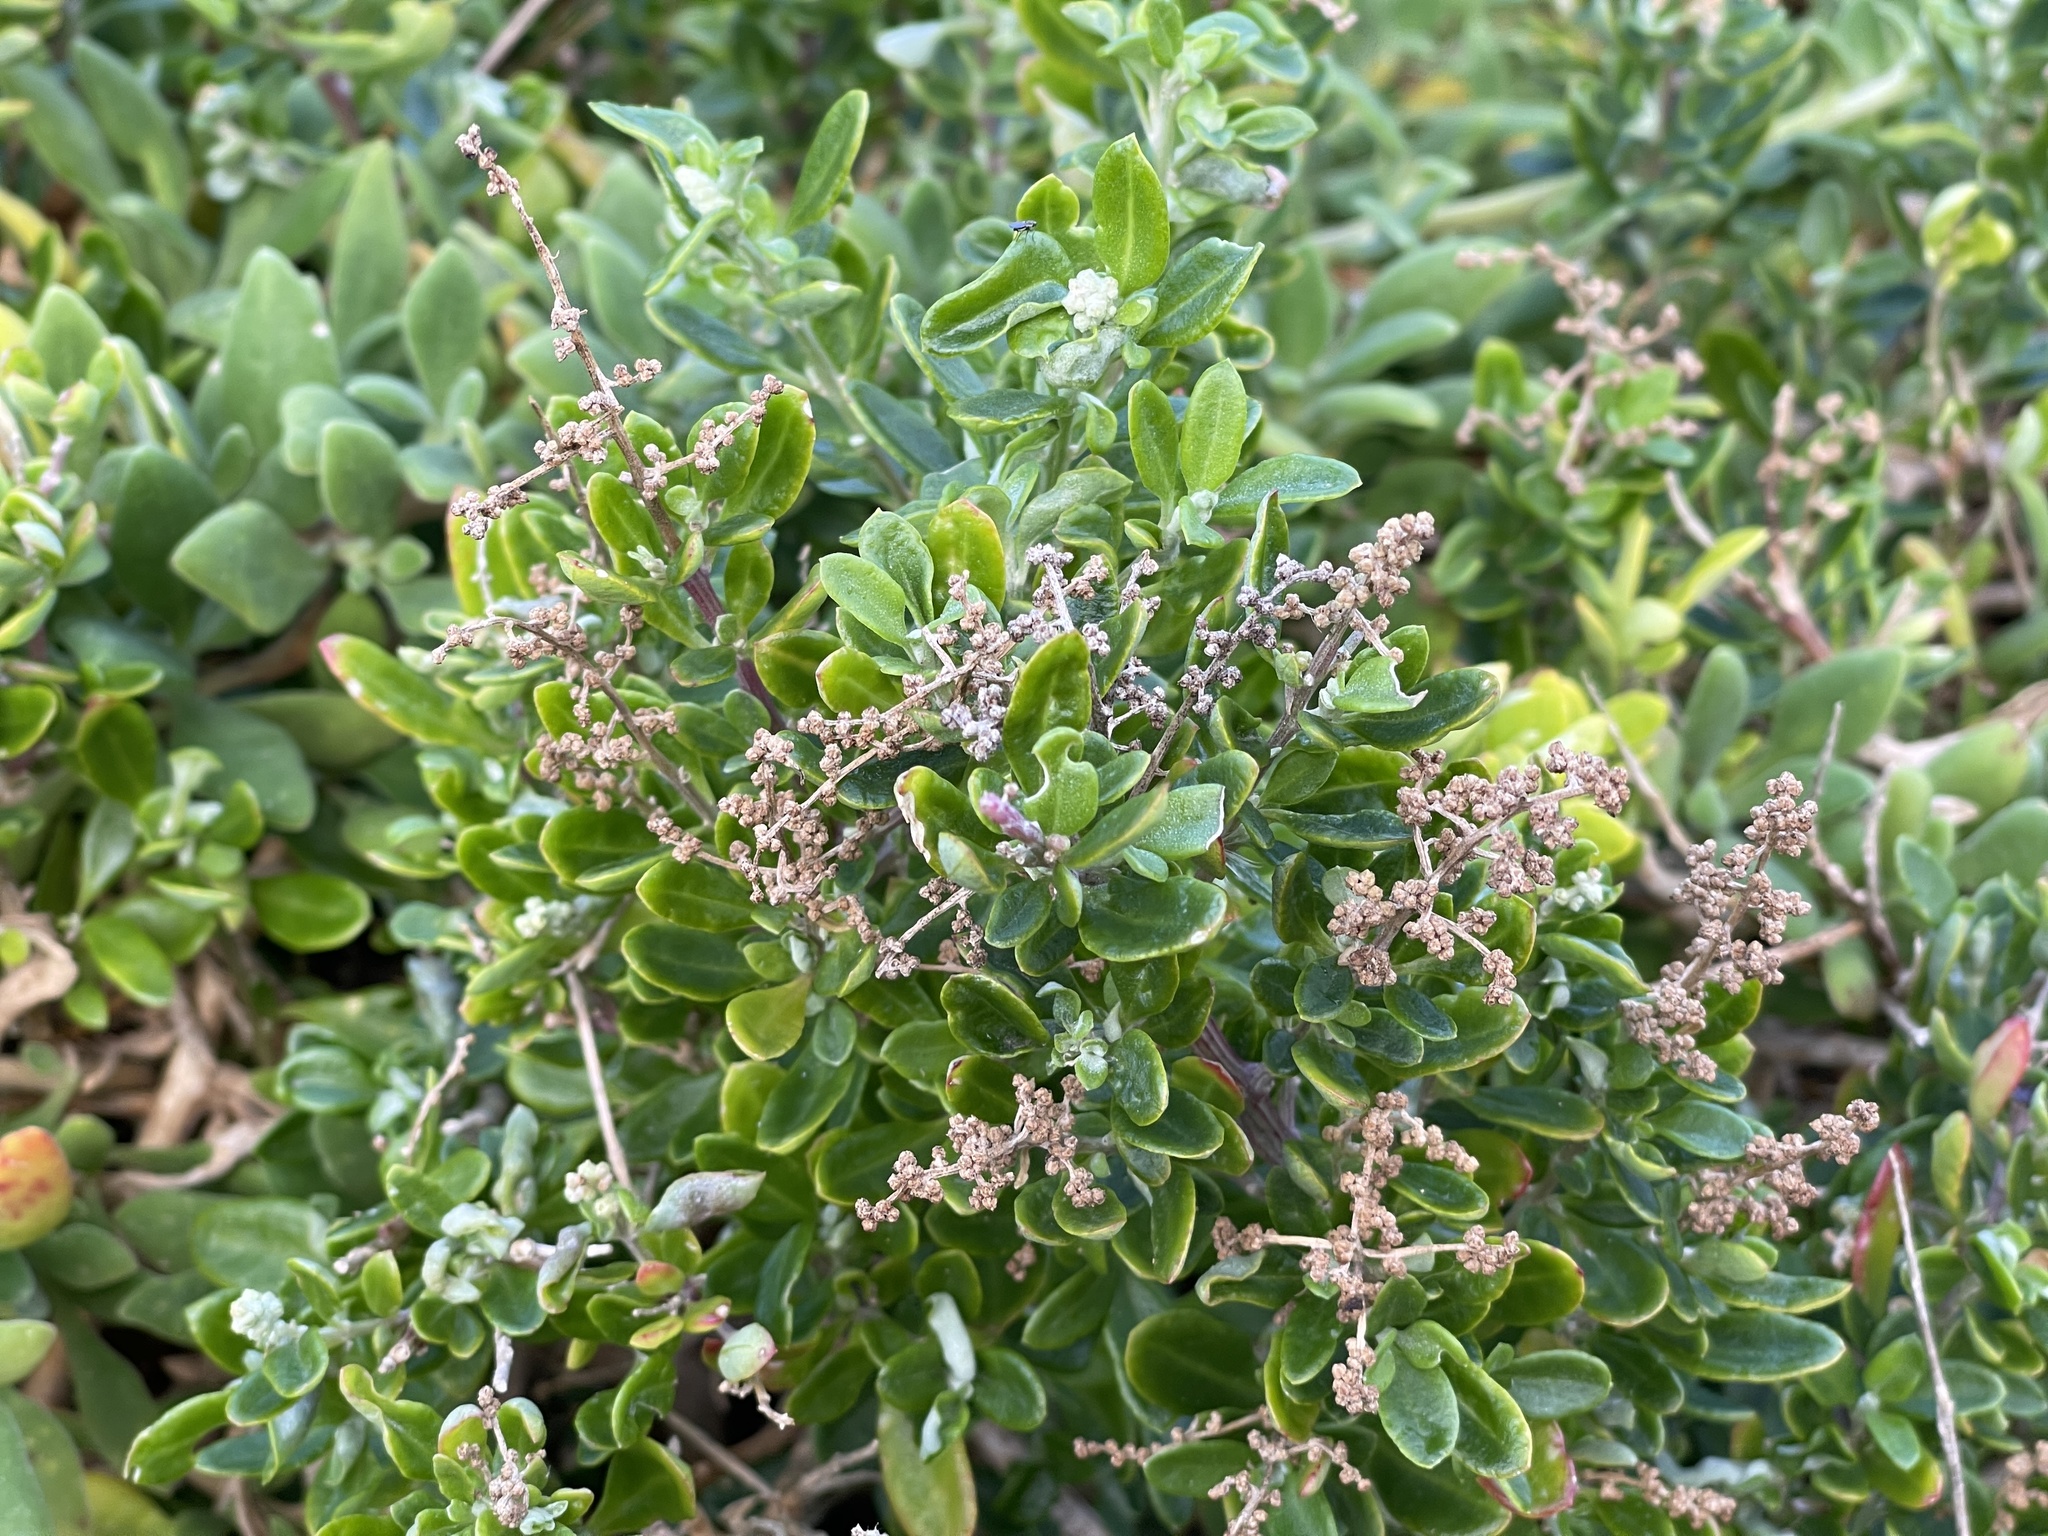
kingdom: Plantae
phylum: Tracheophyta
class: Magnoliopsida
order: Caryophyllales
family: Amaranthaceae
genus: Chenopodium
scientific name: Chenopodium candolleanum
